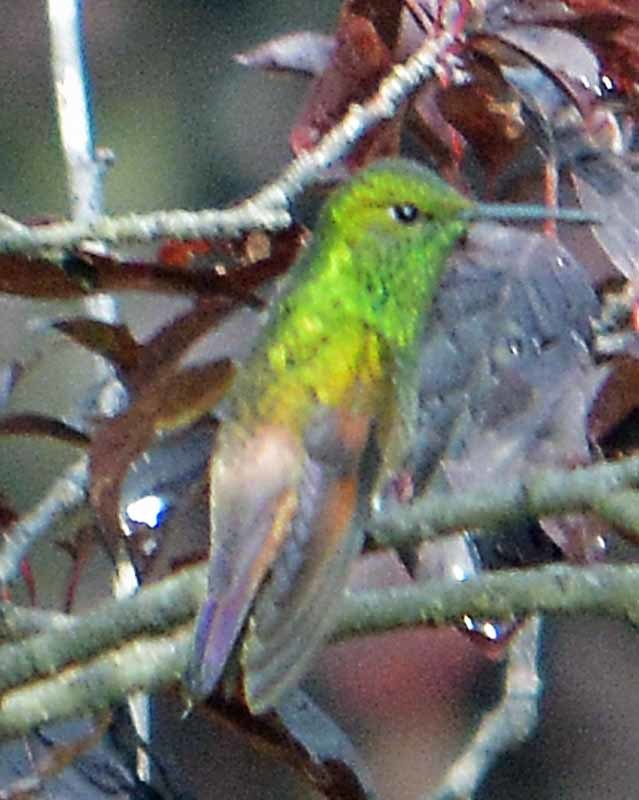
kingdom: Animalia
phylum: Chordata
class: Aves
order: Apodiformes
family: Trochilidae
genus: Saucerottia
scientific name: Saucerottia beryllina
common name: Berylline hummingbird
